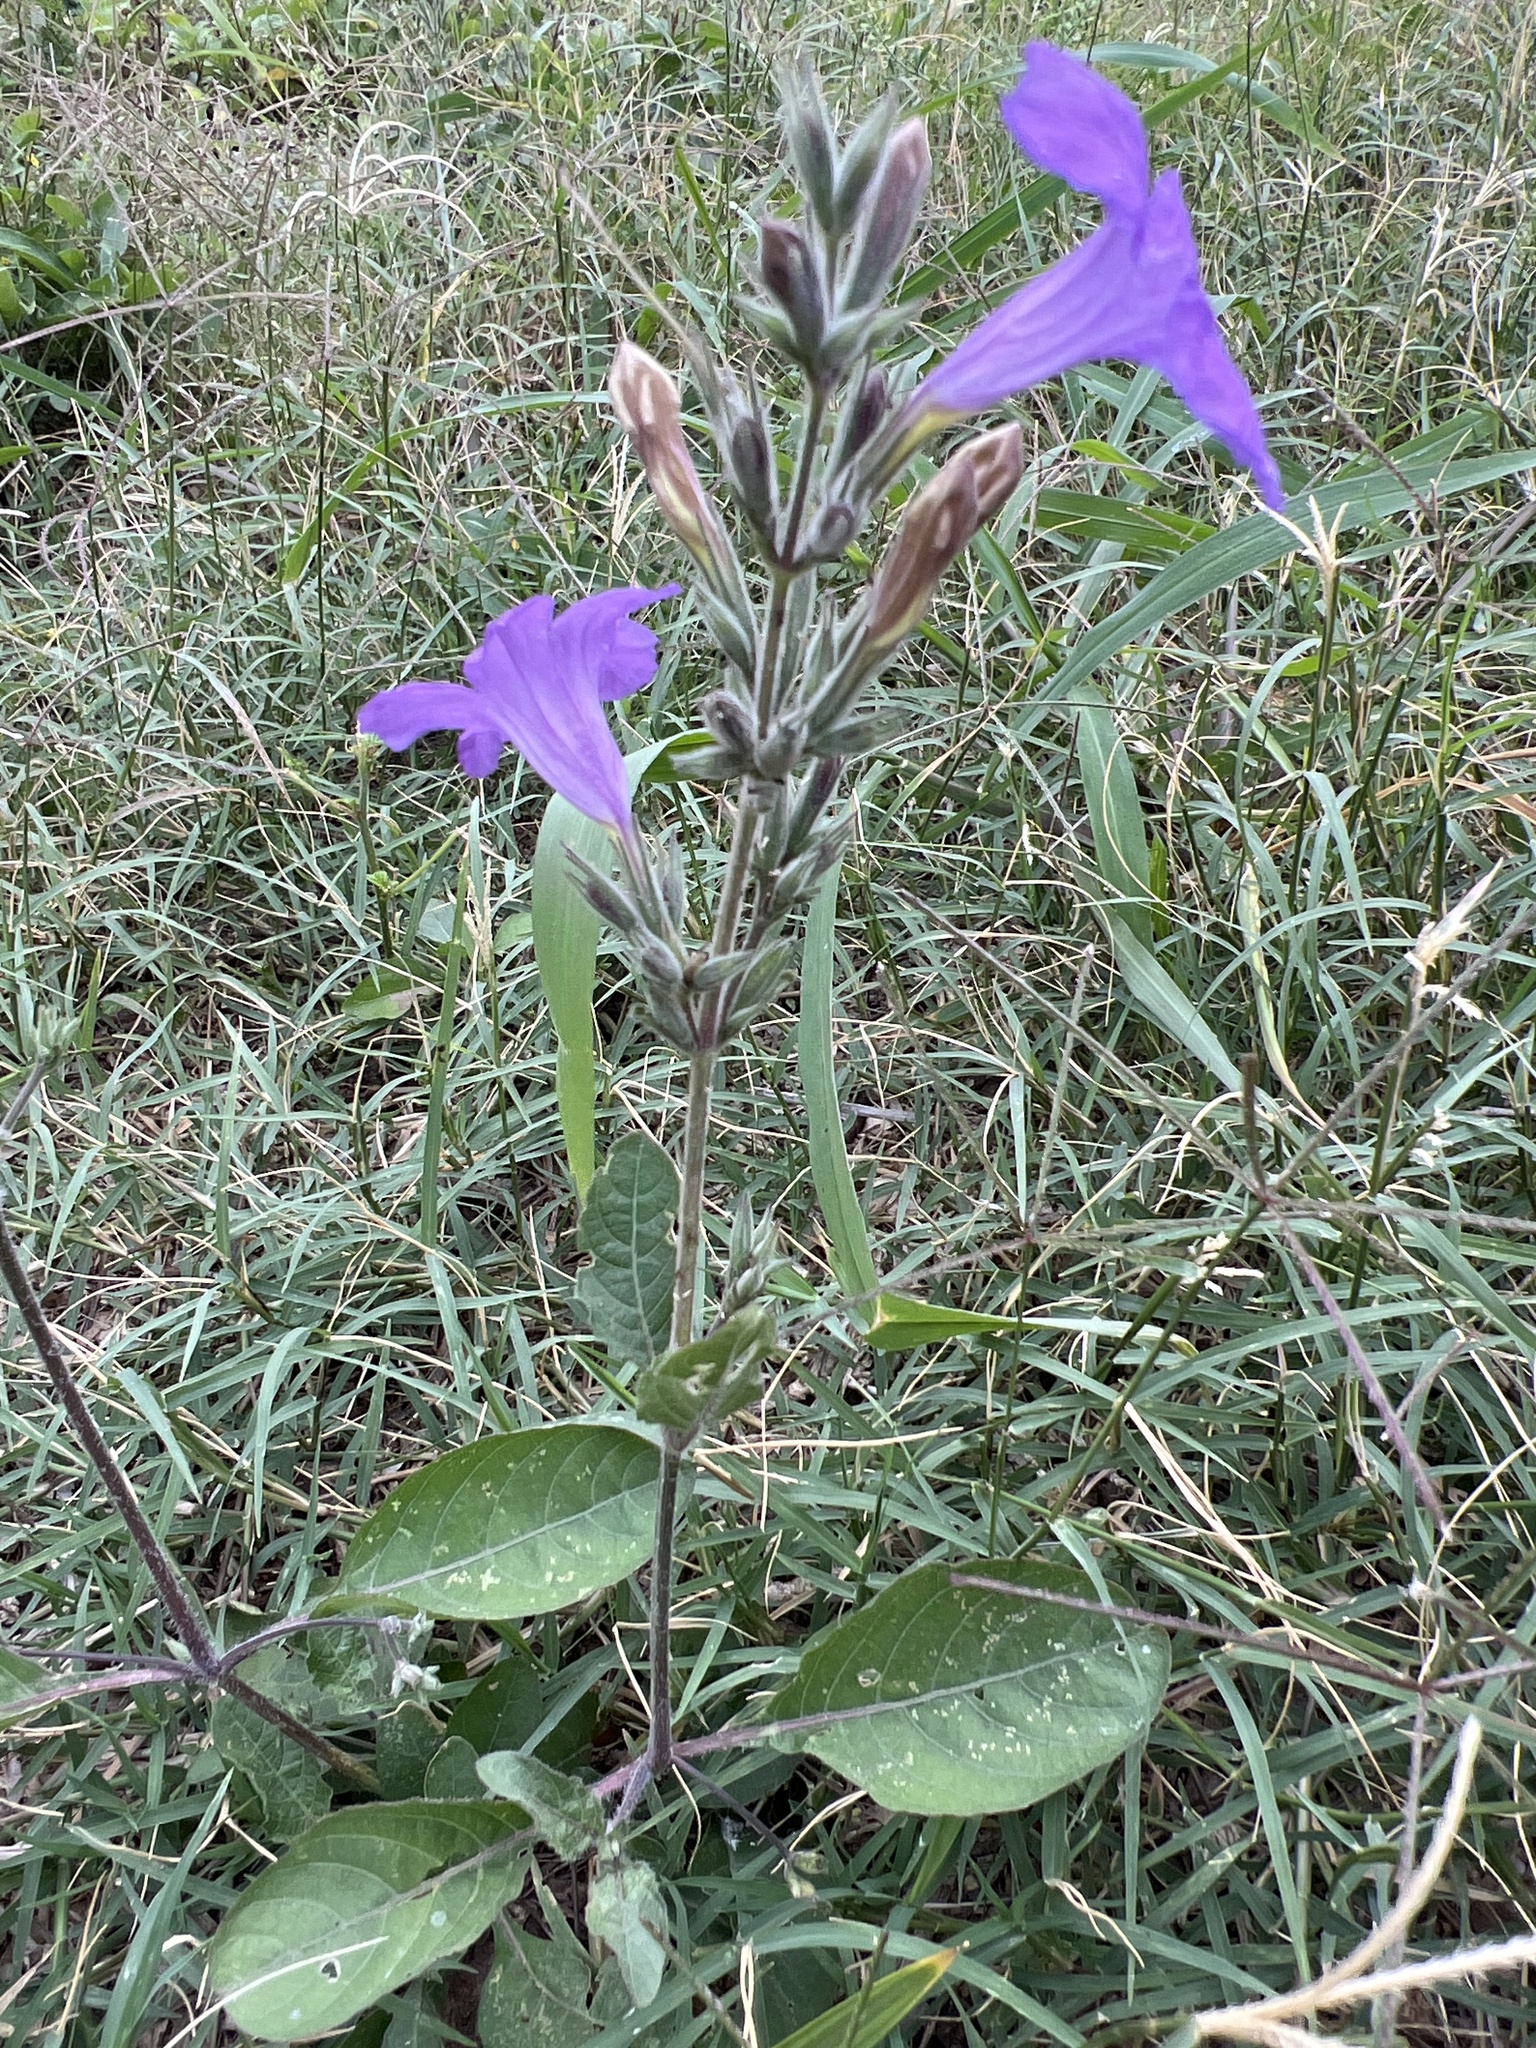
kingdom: Plantae
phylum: Tracheophyta
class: Magnoliopsida
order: Lamiales
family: Acanthaceae
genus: Ruellia
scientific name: Ruellia ciliatiflora
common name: Hairyflower wild petunia
